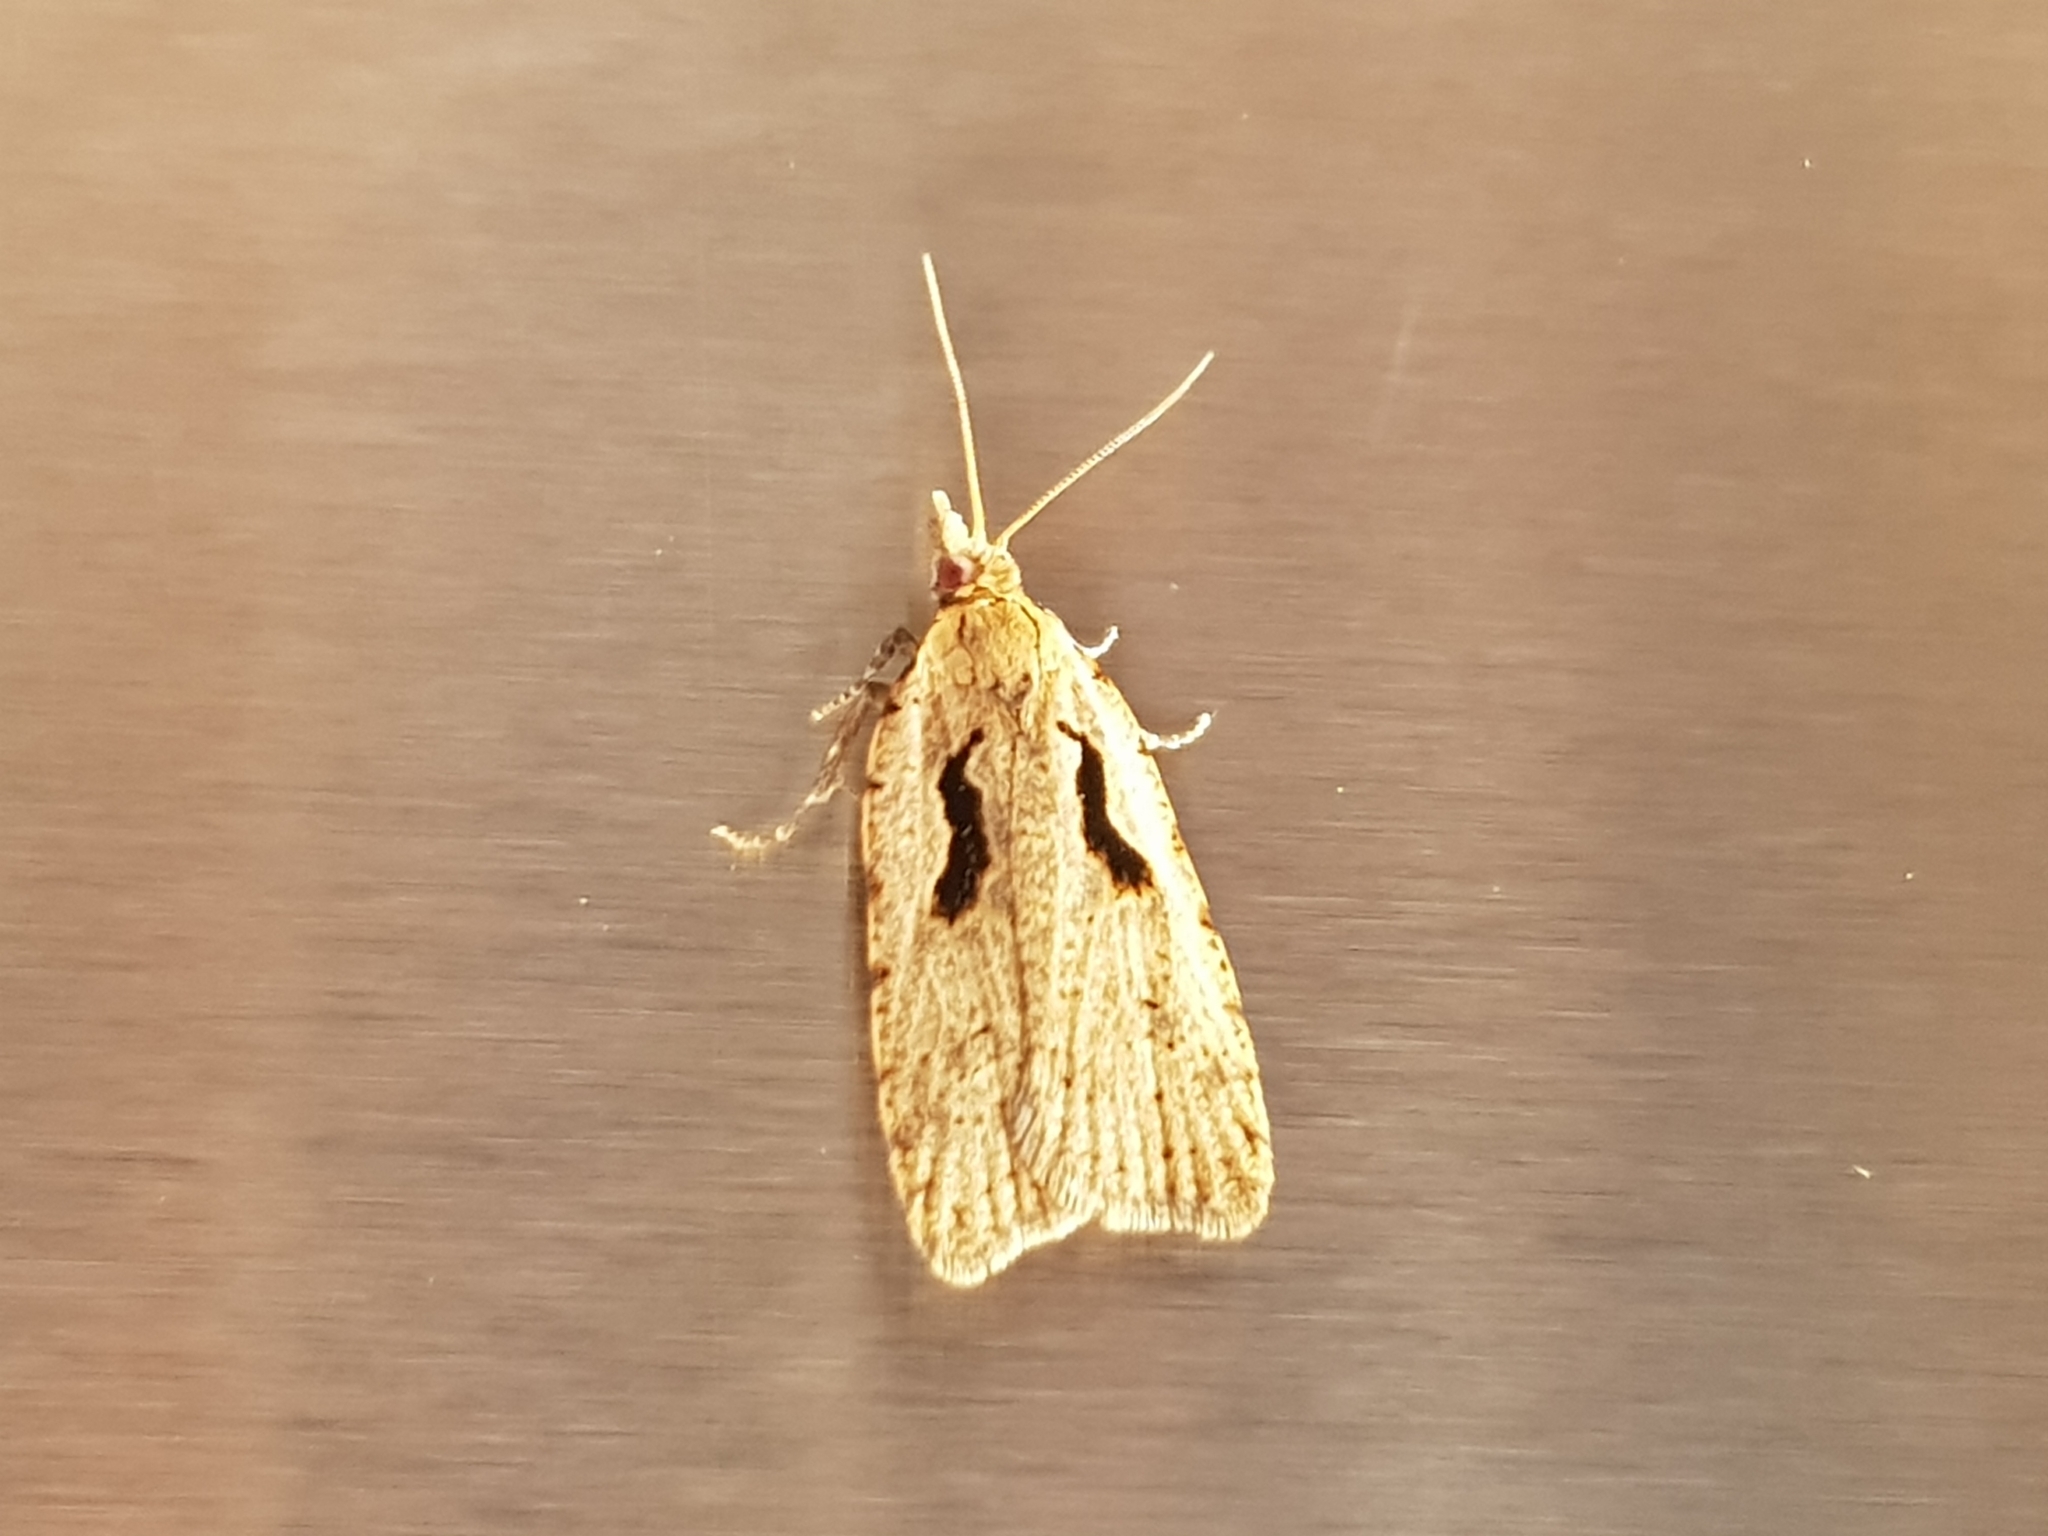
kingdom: Animalia
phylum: Arthropoda
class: Insecta
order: Lepidoptera
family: Tortricidae
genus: Cnephasia
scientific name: Cnephasia jactatana
